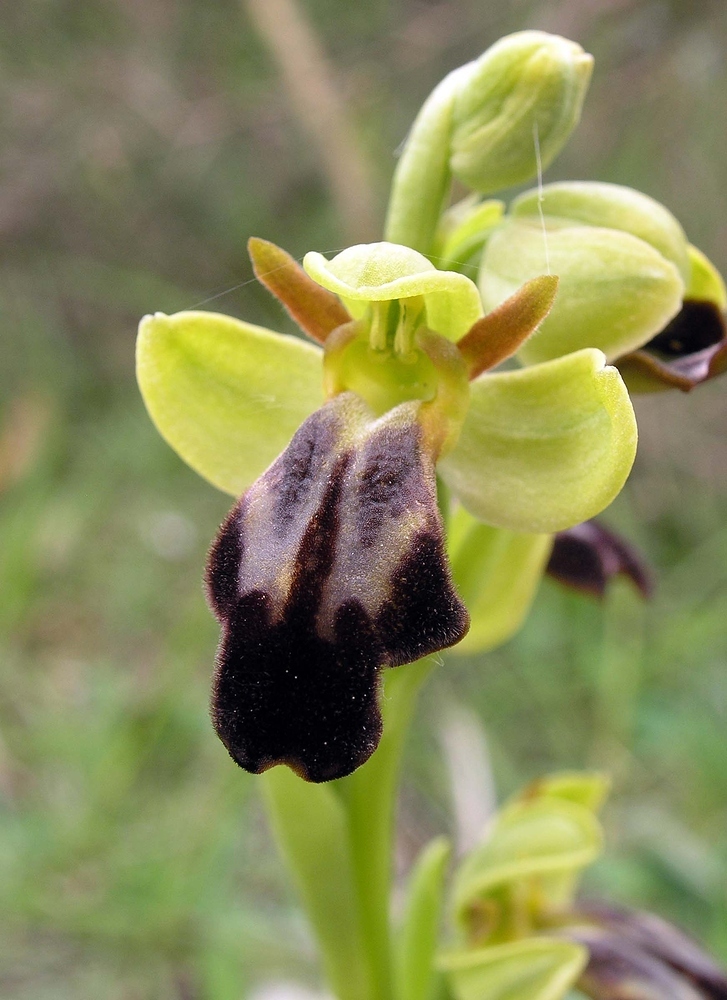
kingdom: Plantae
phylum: Tracheophyta
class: Liliopsida
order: Asparagales
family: Orchidaceae
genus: Ophrys
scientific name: Ophrys fusca
